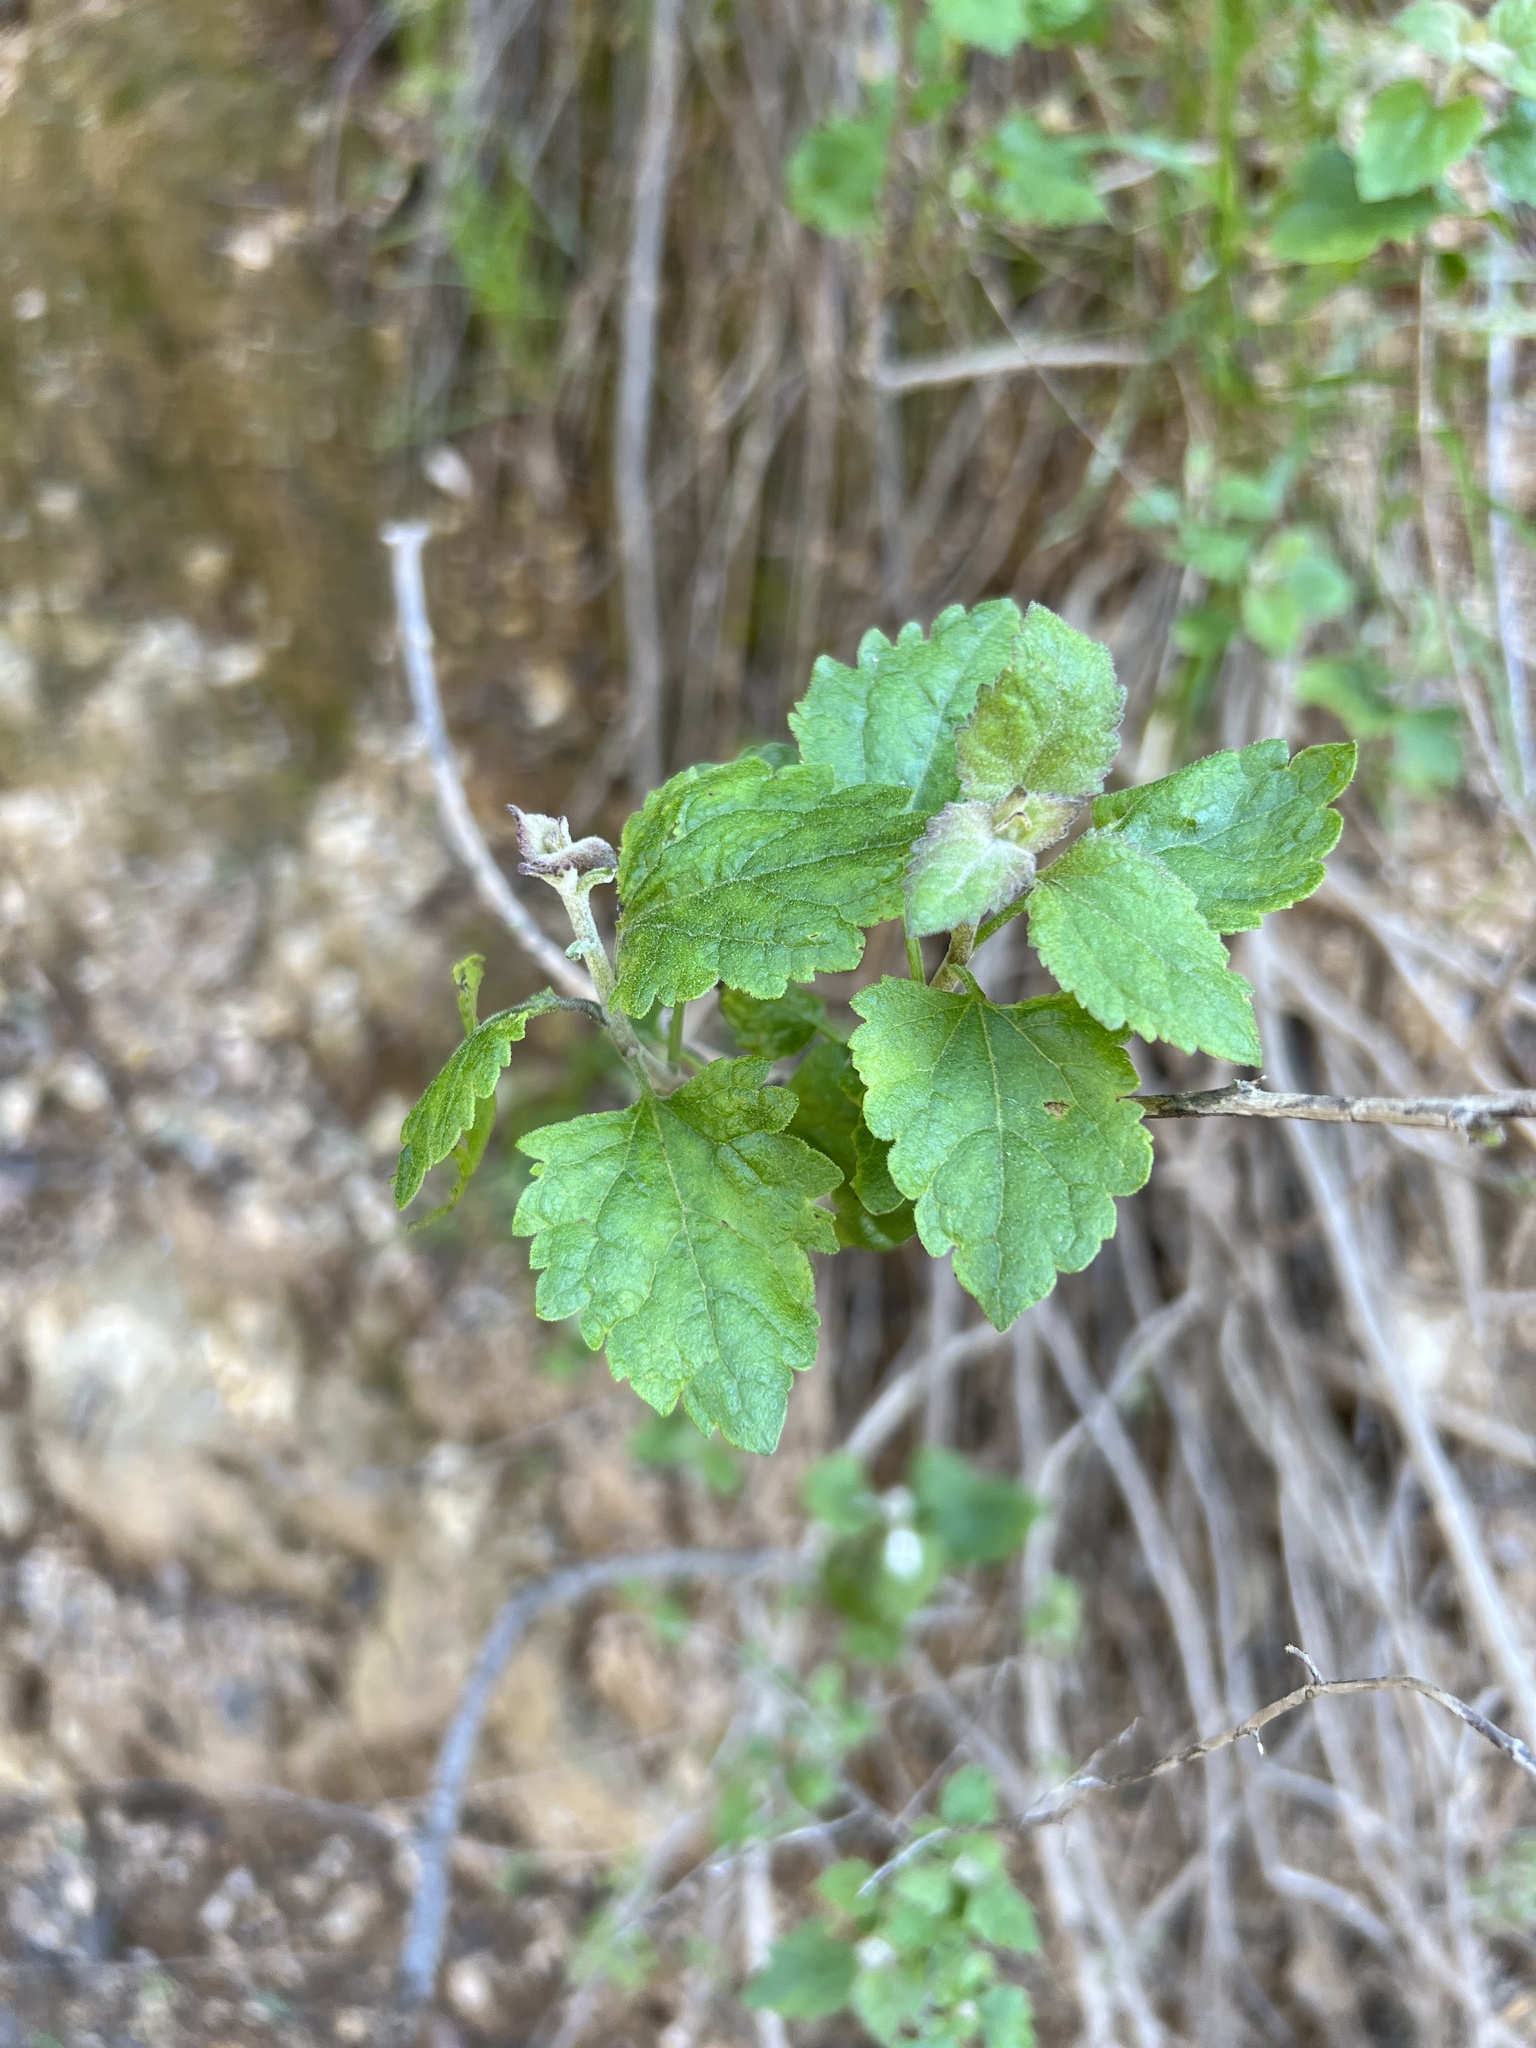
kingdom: Plantae
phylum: Tracheophyta
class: Magnoliopsida
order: Asterales
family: Asteraceae
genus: Brickellia
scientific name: Brickellia californica
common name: California brickellbush
